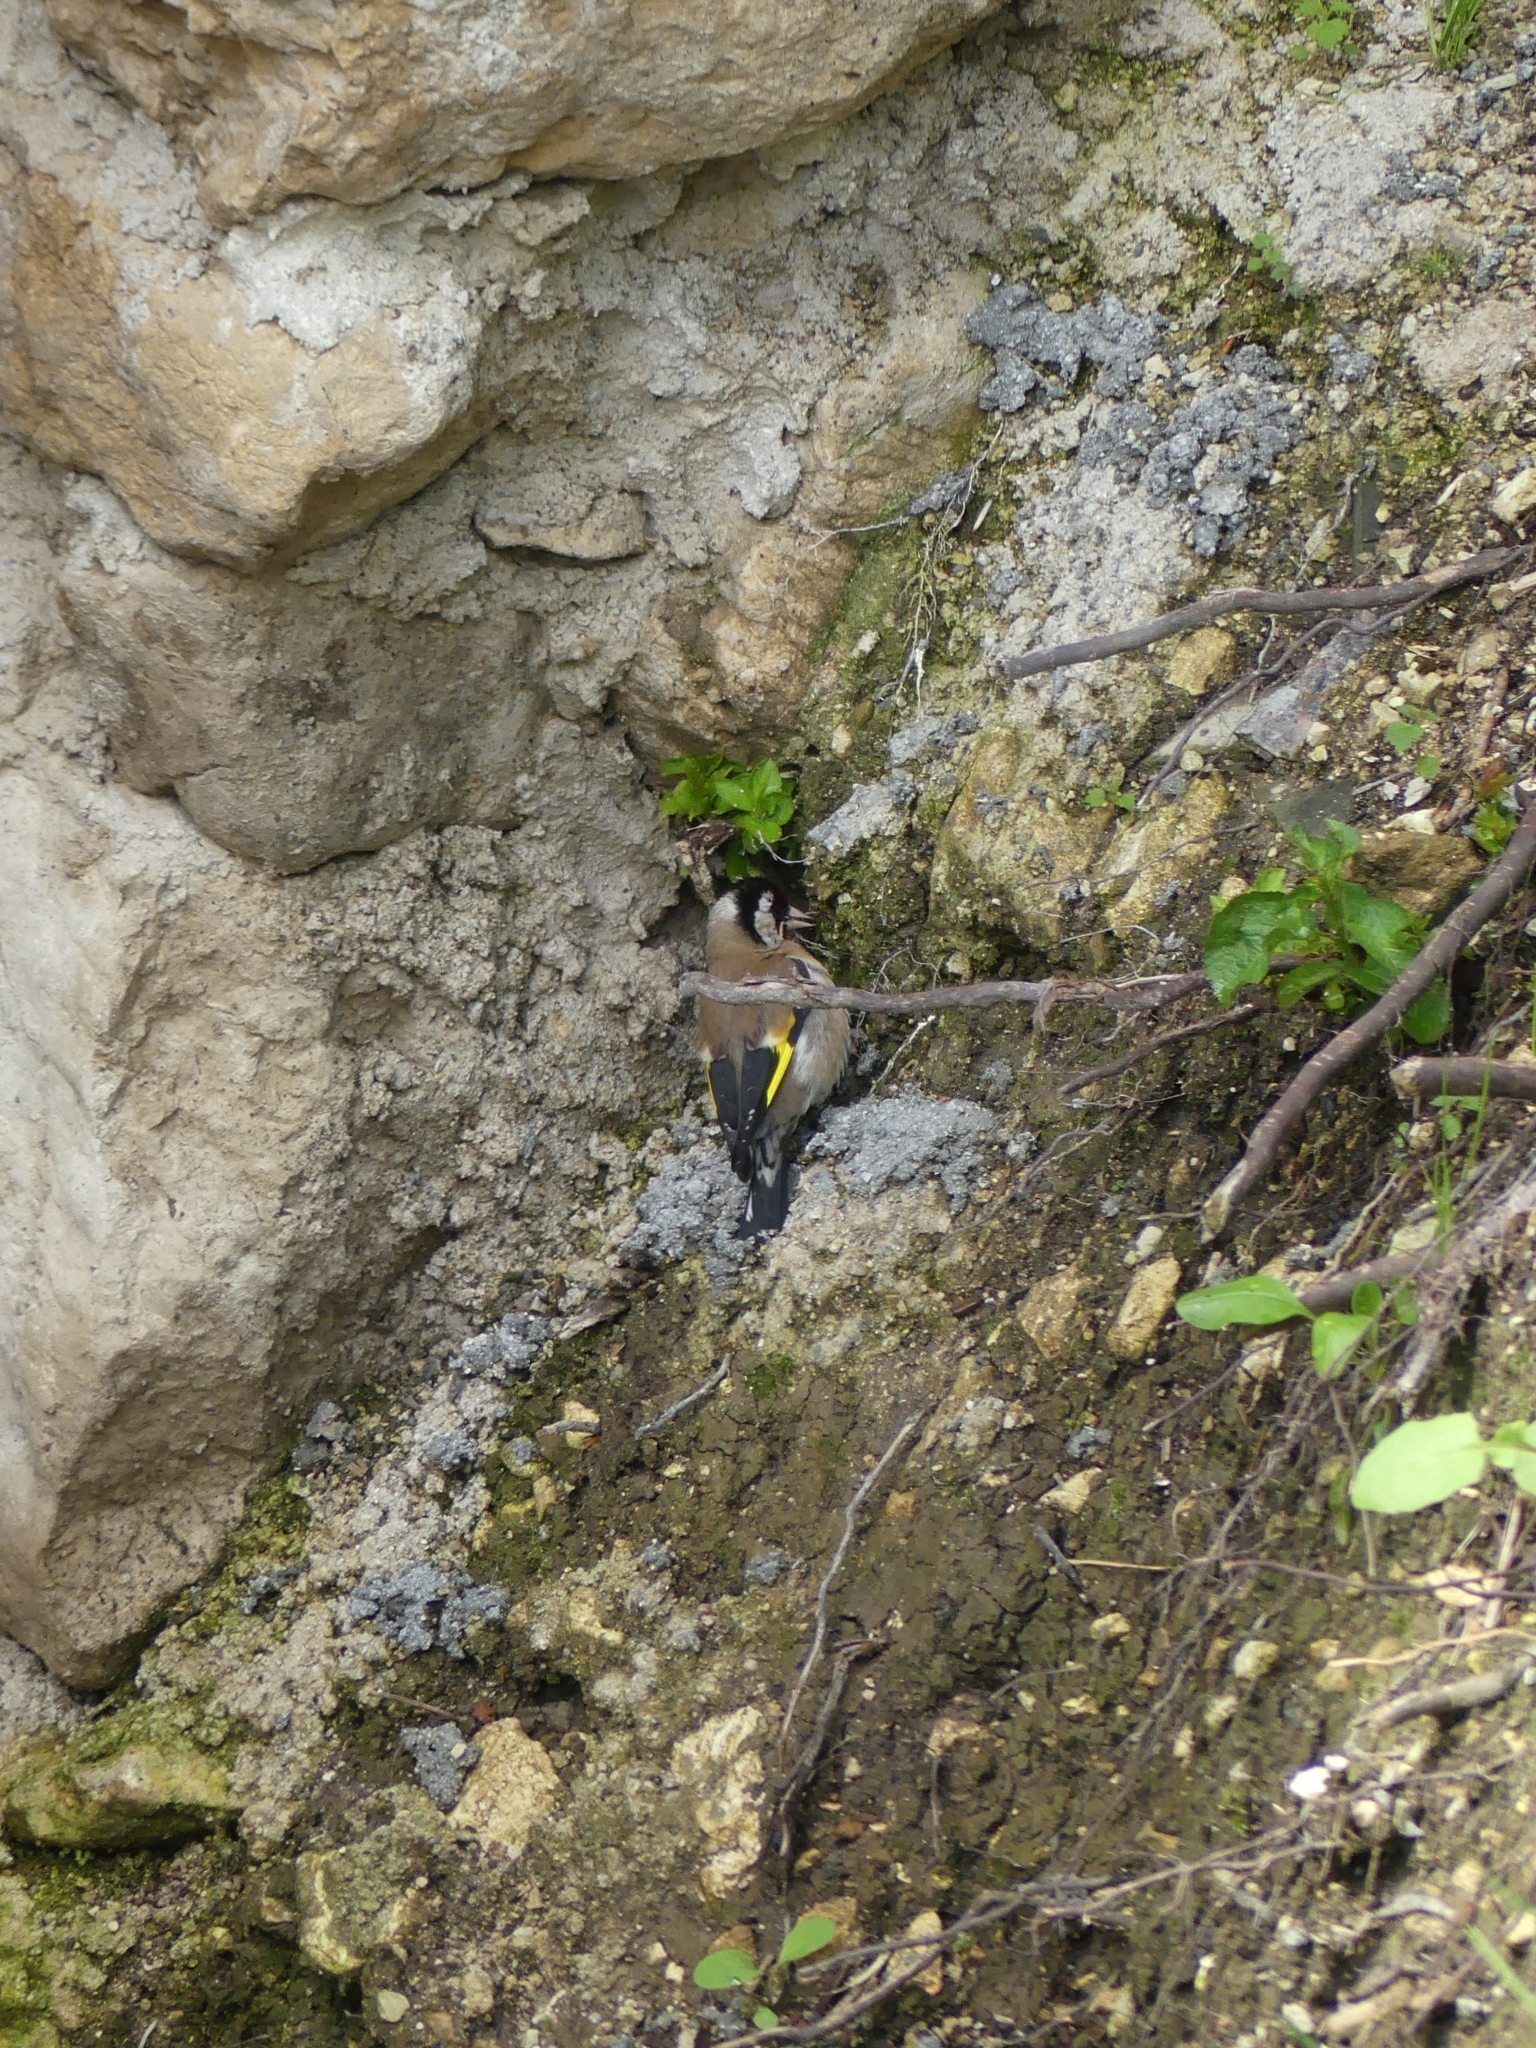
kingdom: Animalia
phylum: Chordata
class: Aves
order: Passeriformes
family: Fringillidae
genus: Carduelis
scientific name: Carduelis carduelis
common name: European goldfinch
